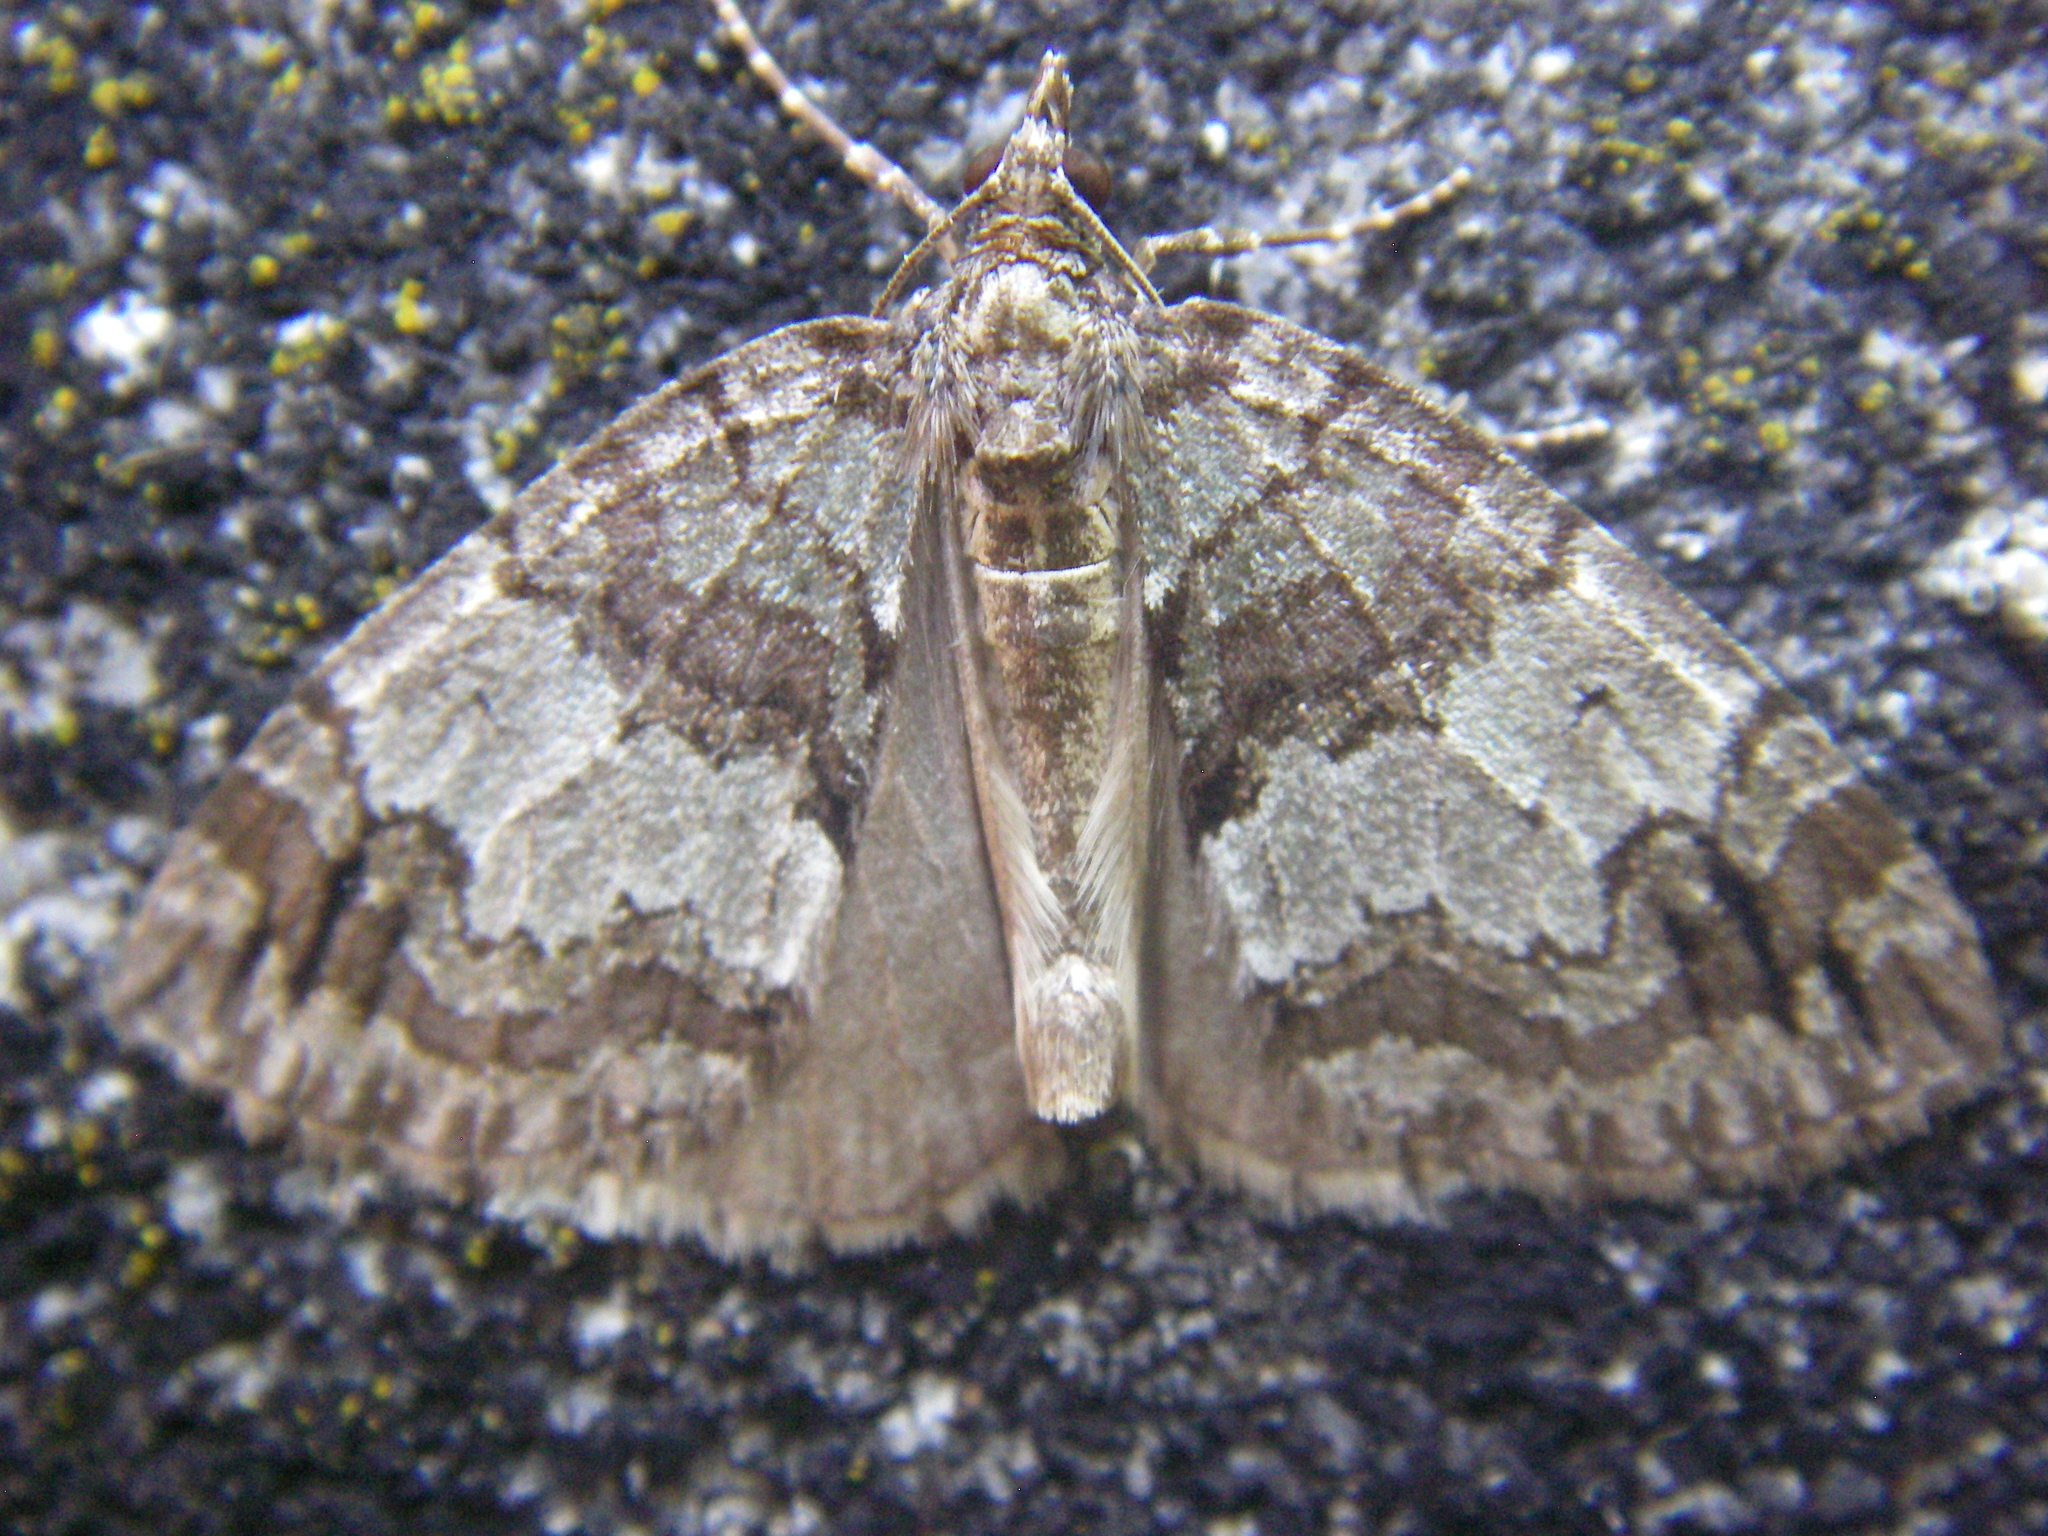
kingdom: Animalia
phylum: Arthropoda
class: Insecta
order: Lepidoptera
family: Geometridae
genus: Hydriomena
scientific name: Hydriomena impluviata
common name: May highflyer
